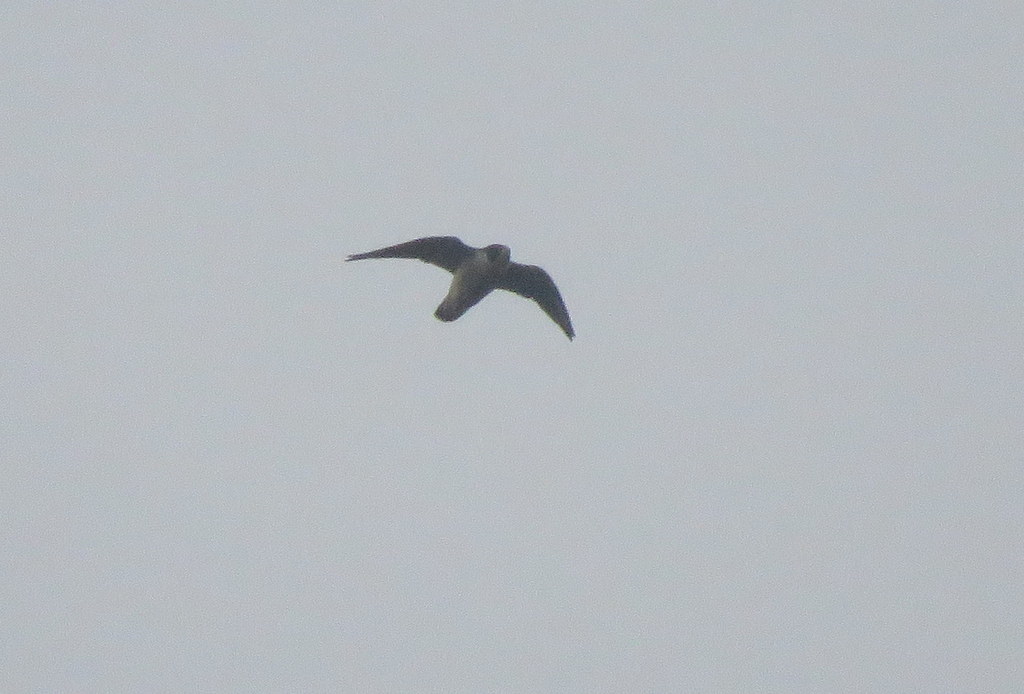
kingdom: Animalia
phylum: Chordata
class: Aves
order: Falconiformes
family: Falconidae
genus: Falco
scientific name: Falco peregrinus
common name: Peregrine falcon
